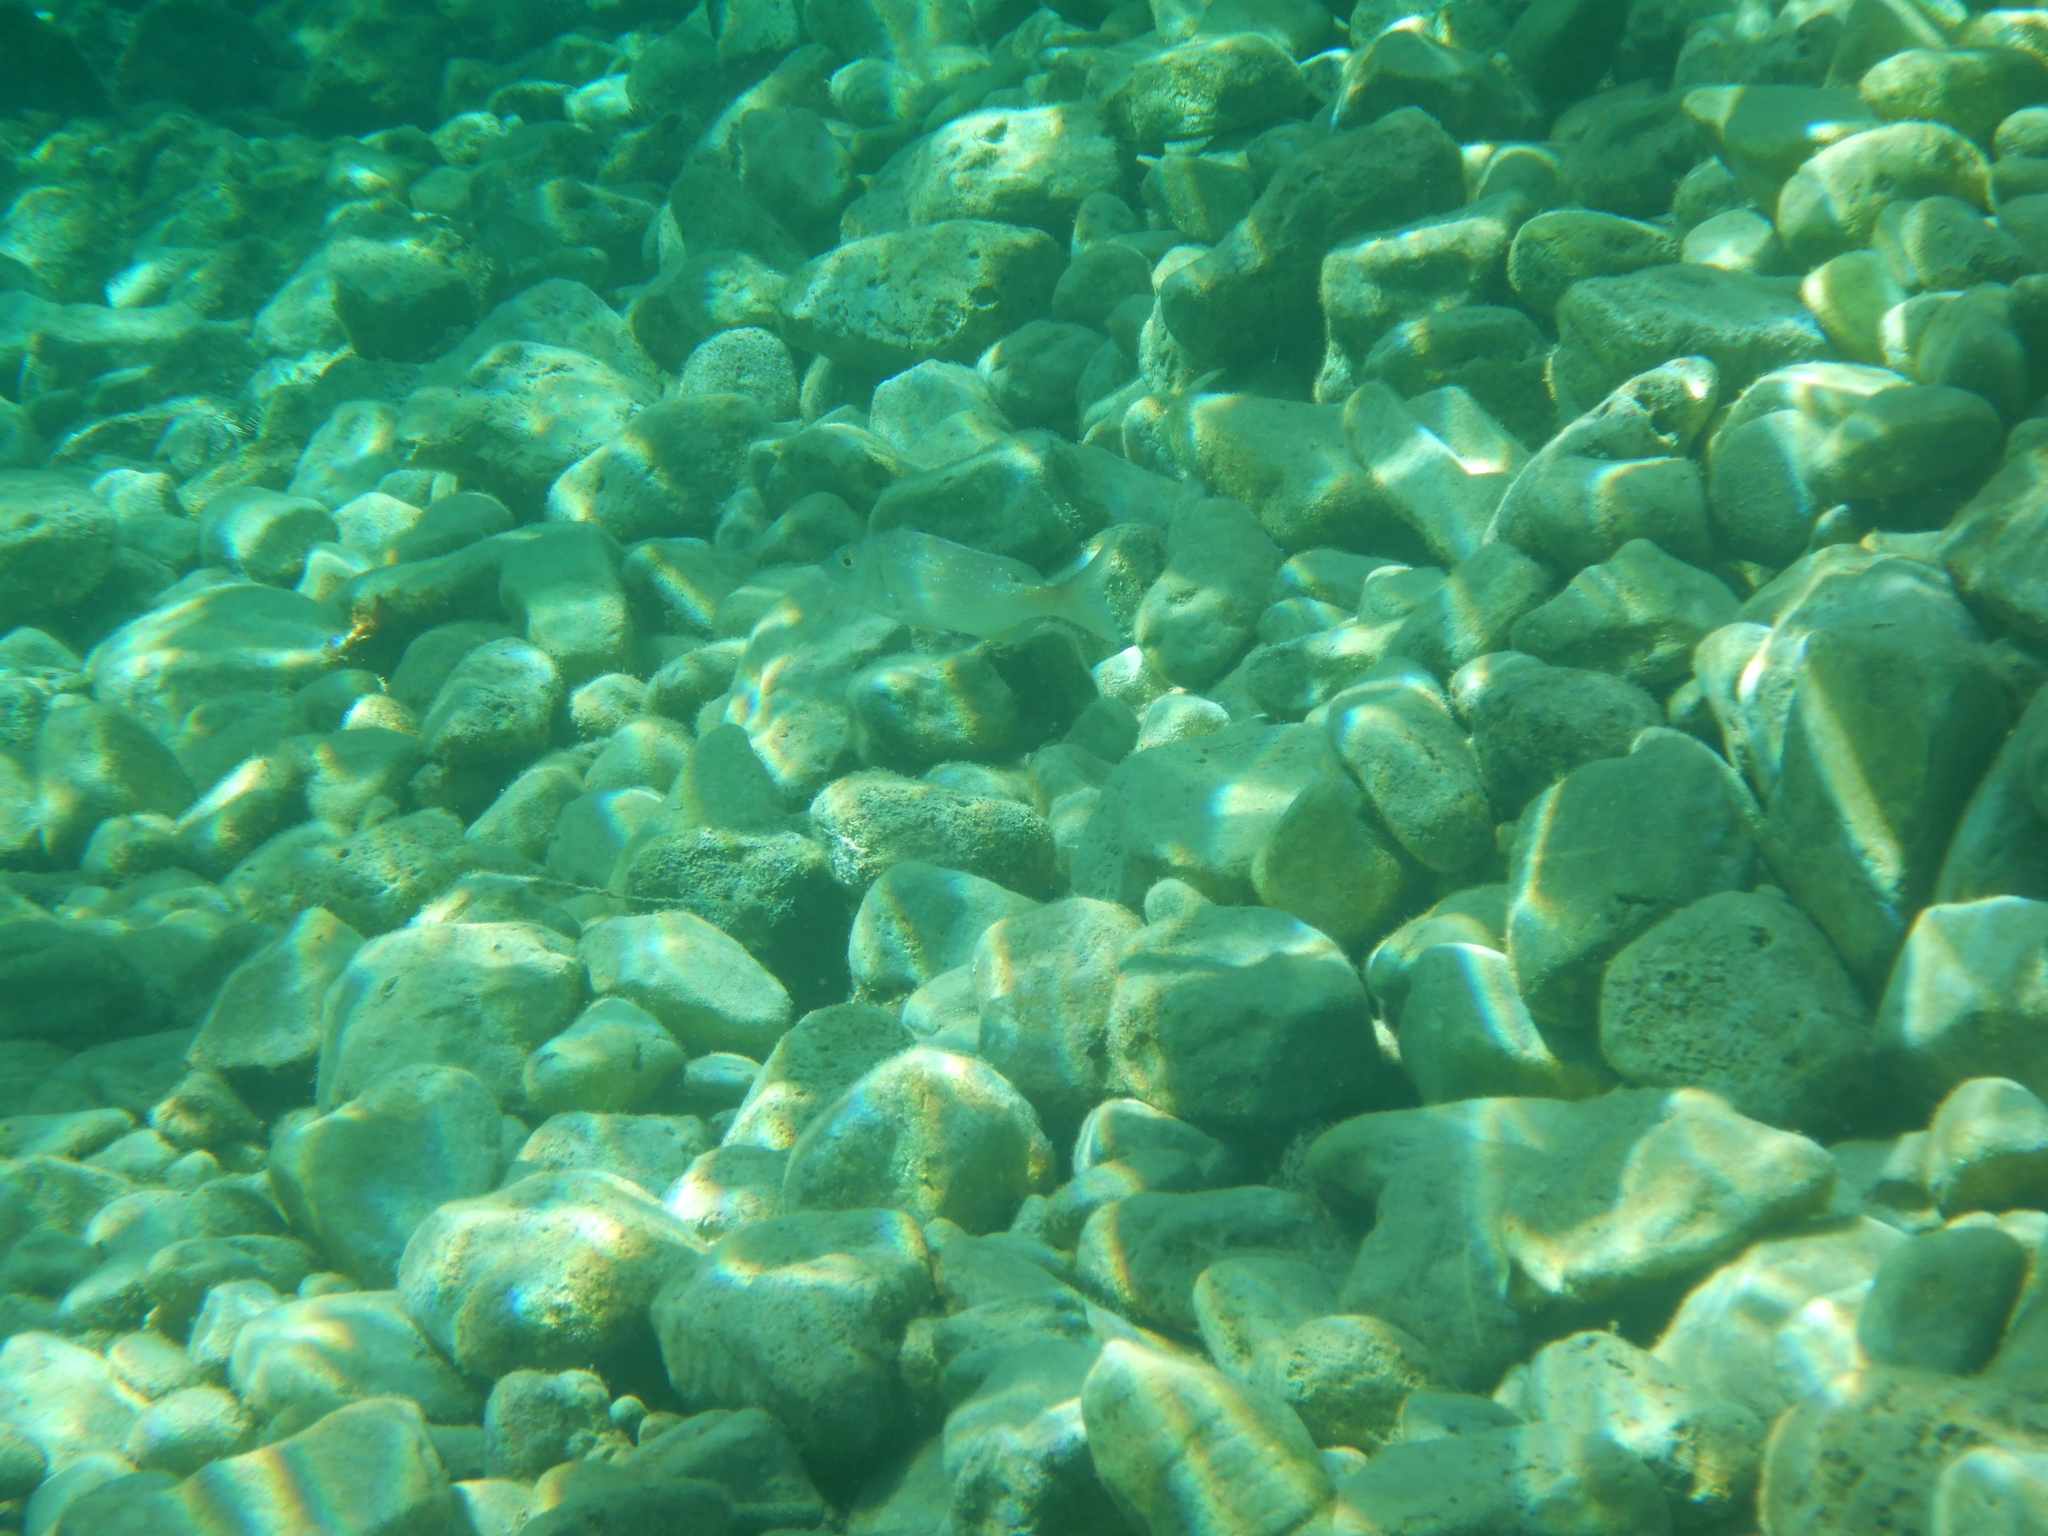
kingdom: Animalia
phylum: Chordata
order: Perciformes
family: Sparidae
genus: Dentex
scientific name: Dentex dentex
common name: Dentex
